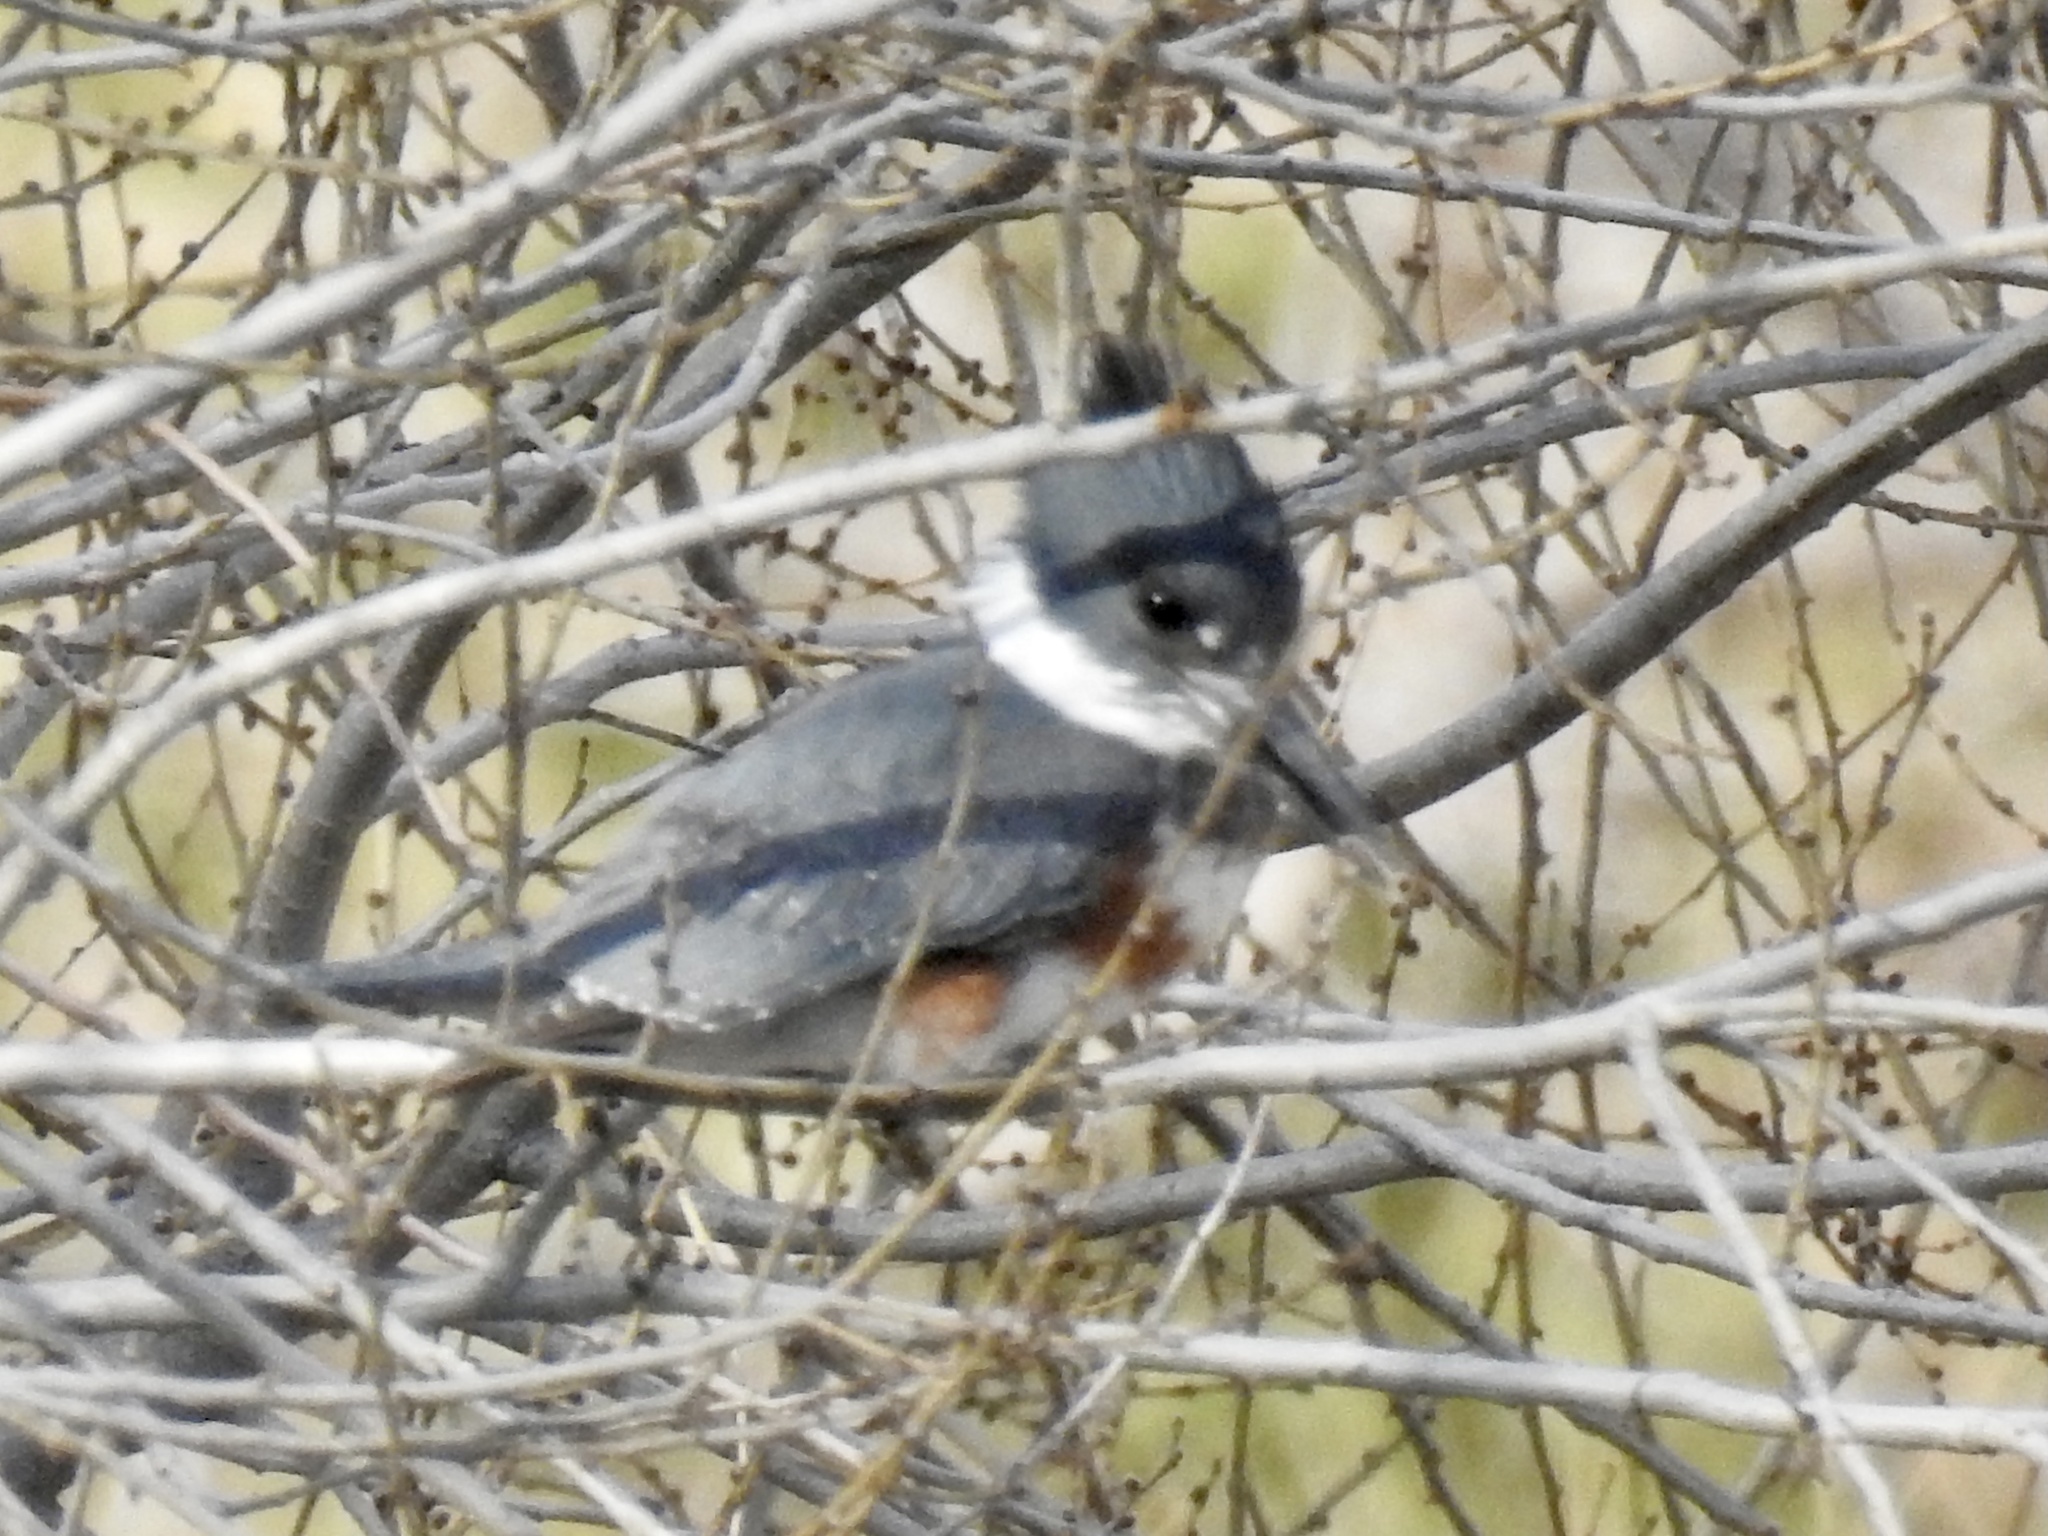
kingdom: Animalia
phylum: Chordata
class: Aves
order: Coraciiformes
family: Alcedinidae
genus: Megaceryle
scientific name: Megaceryle alcyon
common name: Belted kingfisher
